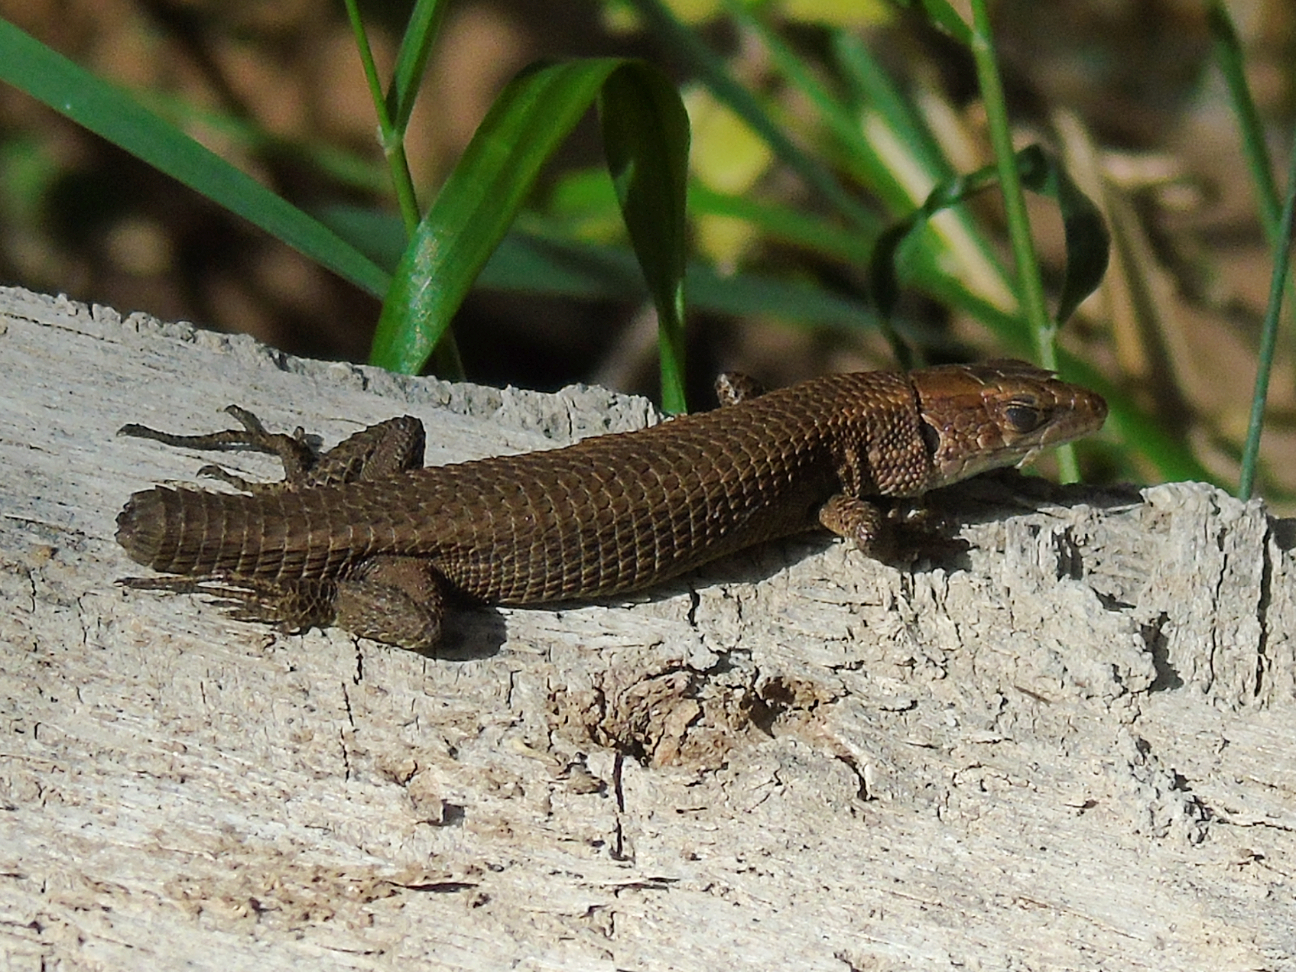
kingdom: Animalia
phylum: Chordata
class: Squamata
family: Lacertidae
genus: Algyroides
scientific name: Algyroides moreoticus
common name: Greek algyroides
